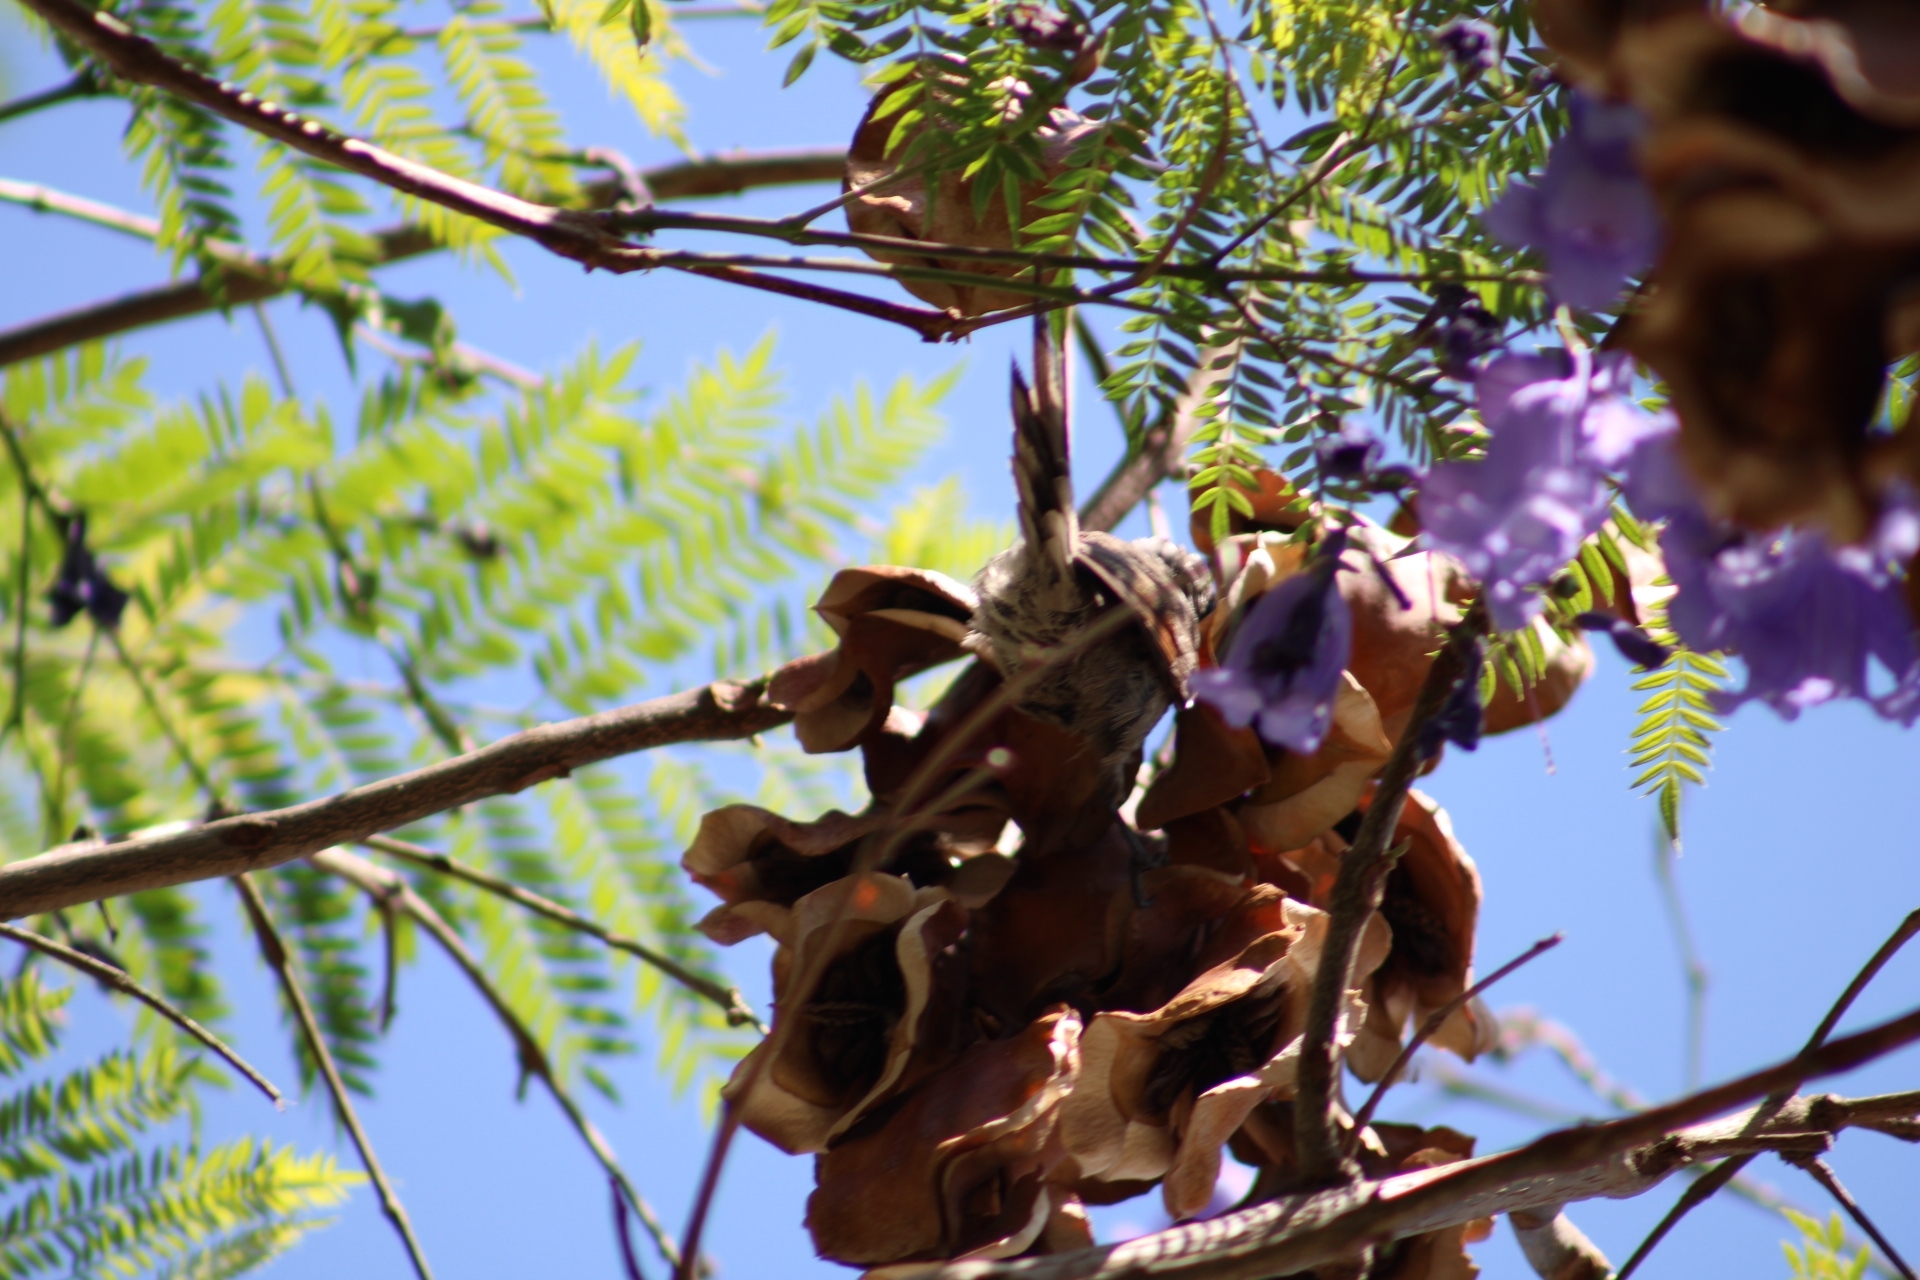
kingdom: Animalia
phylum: Chordata
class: Aves
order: Passeriformes
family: Furnariidae
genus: Leptasthenura
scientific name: Leptasthenura aegithaloides
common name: Plain-mantled tit-spinetail
